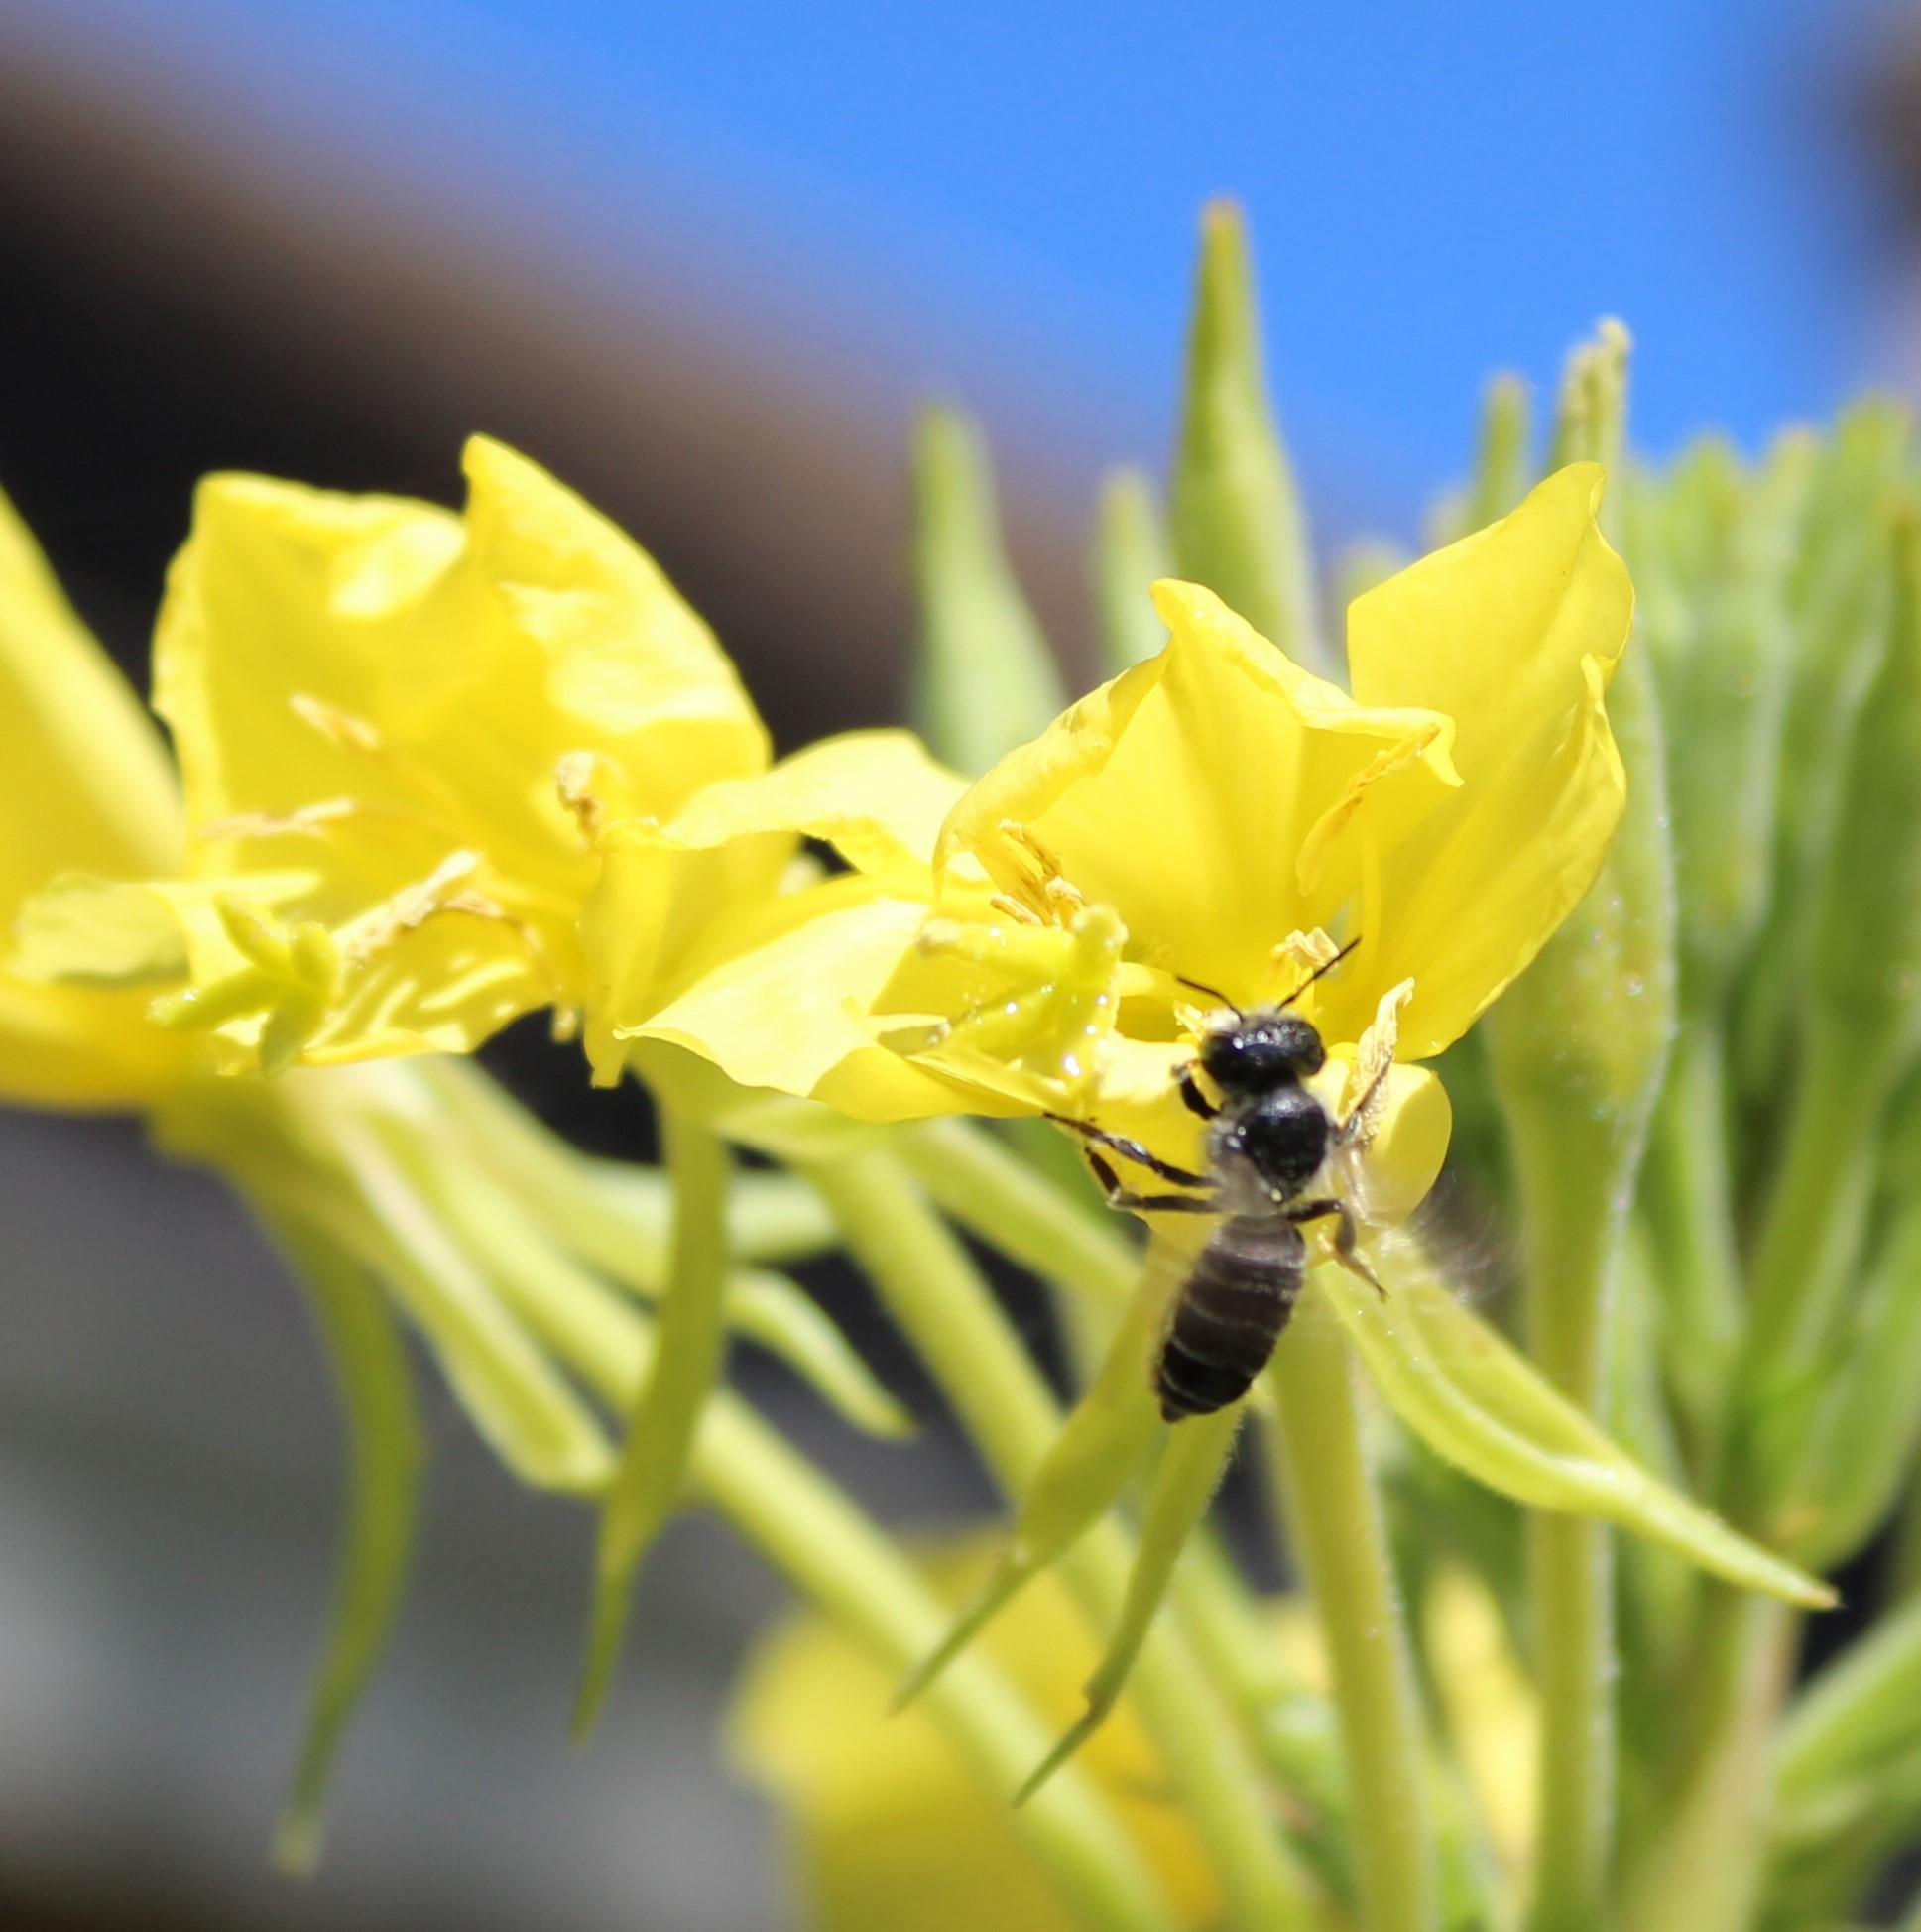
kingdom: Animalia
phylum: Arthropoda
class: Insecta
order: Hymenoptera
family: Megachilidae
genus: Megachile
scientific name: Megachile montivaga
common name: Silver-tailed petalcutter bee
